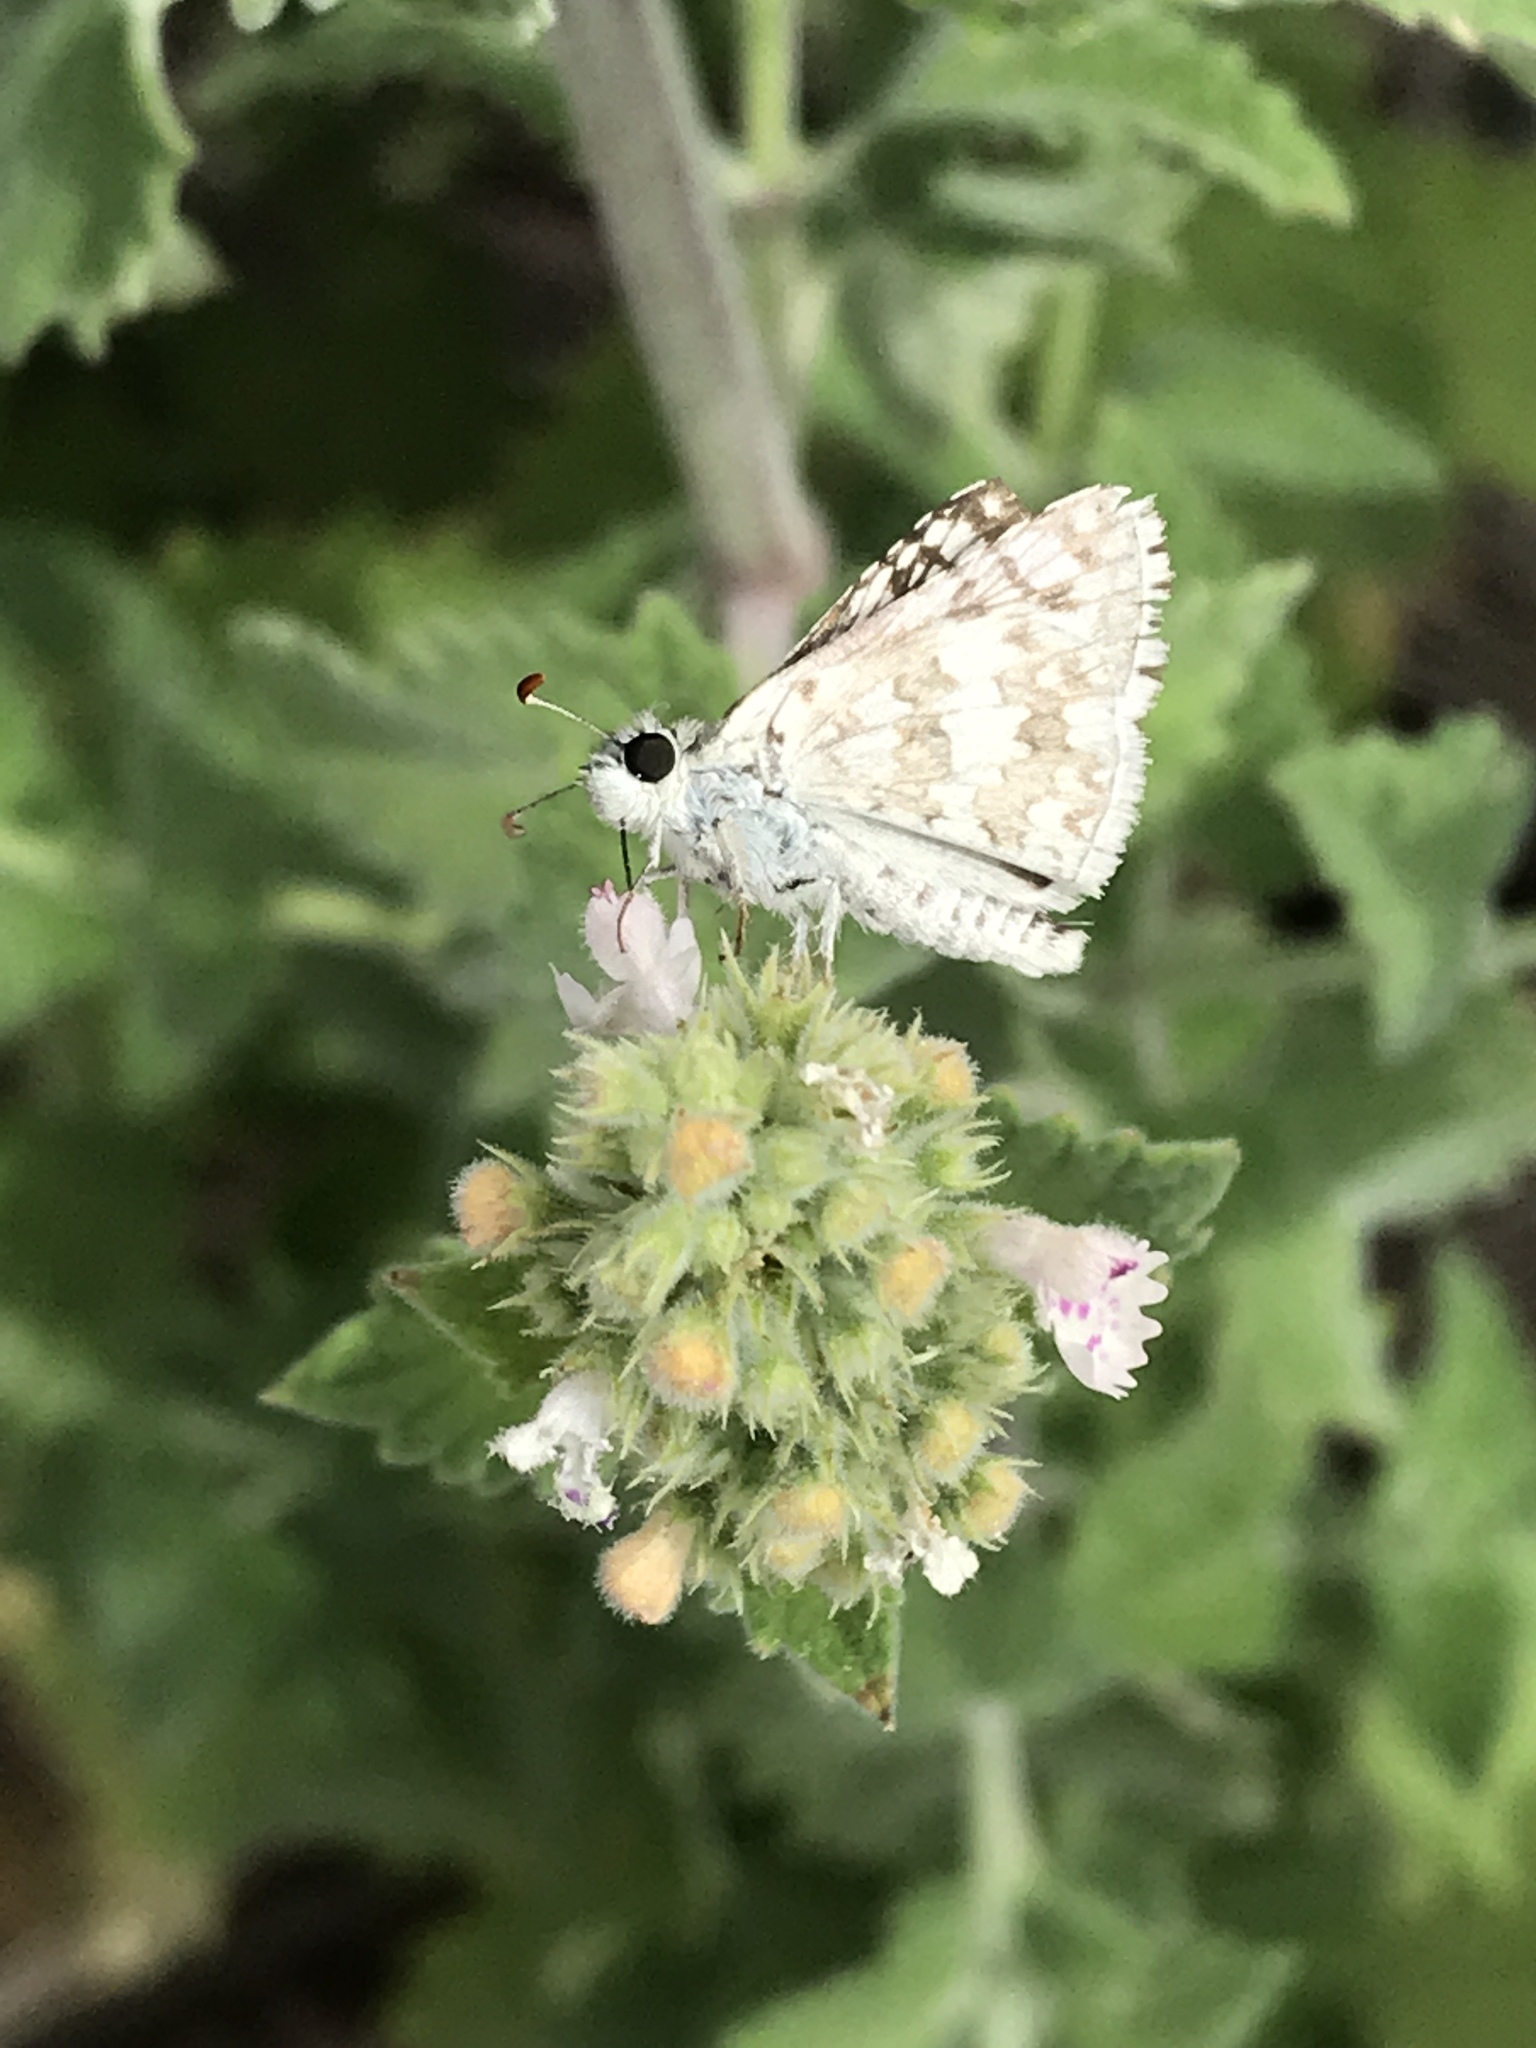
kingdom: Animalia
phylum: Arthropoda
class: Insecta
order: Lepidoptera
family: Hesperiidae
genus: Burnsius
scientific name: Burnsius communis
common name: Common checkered-skipper
